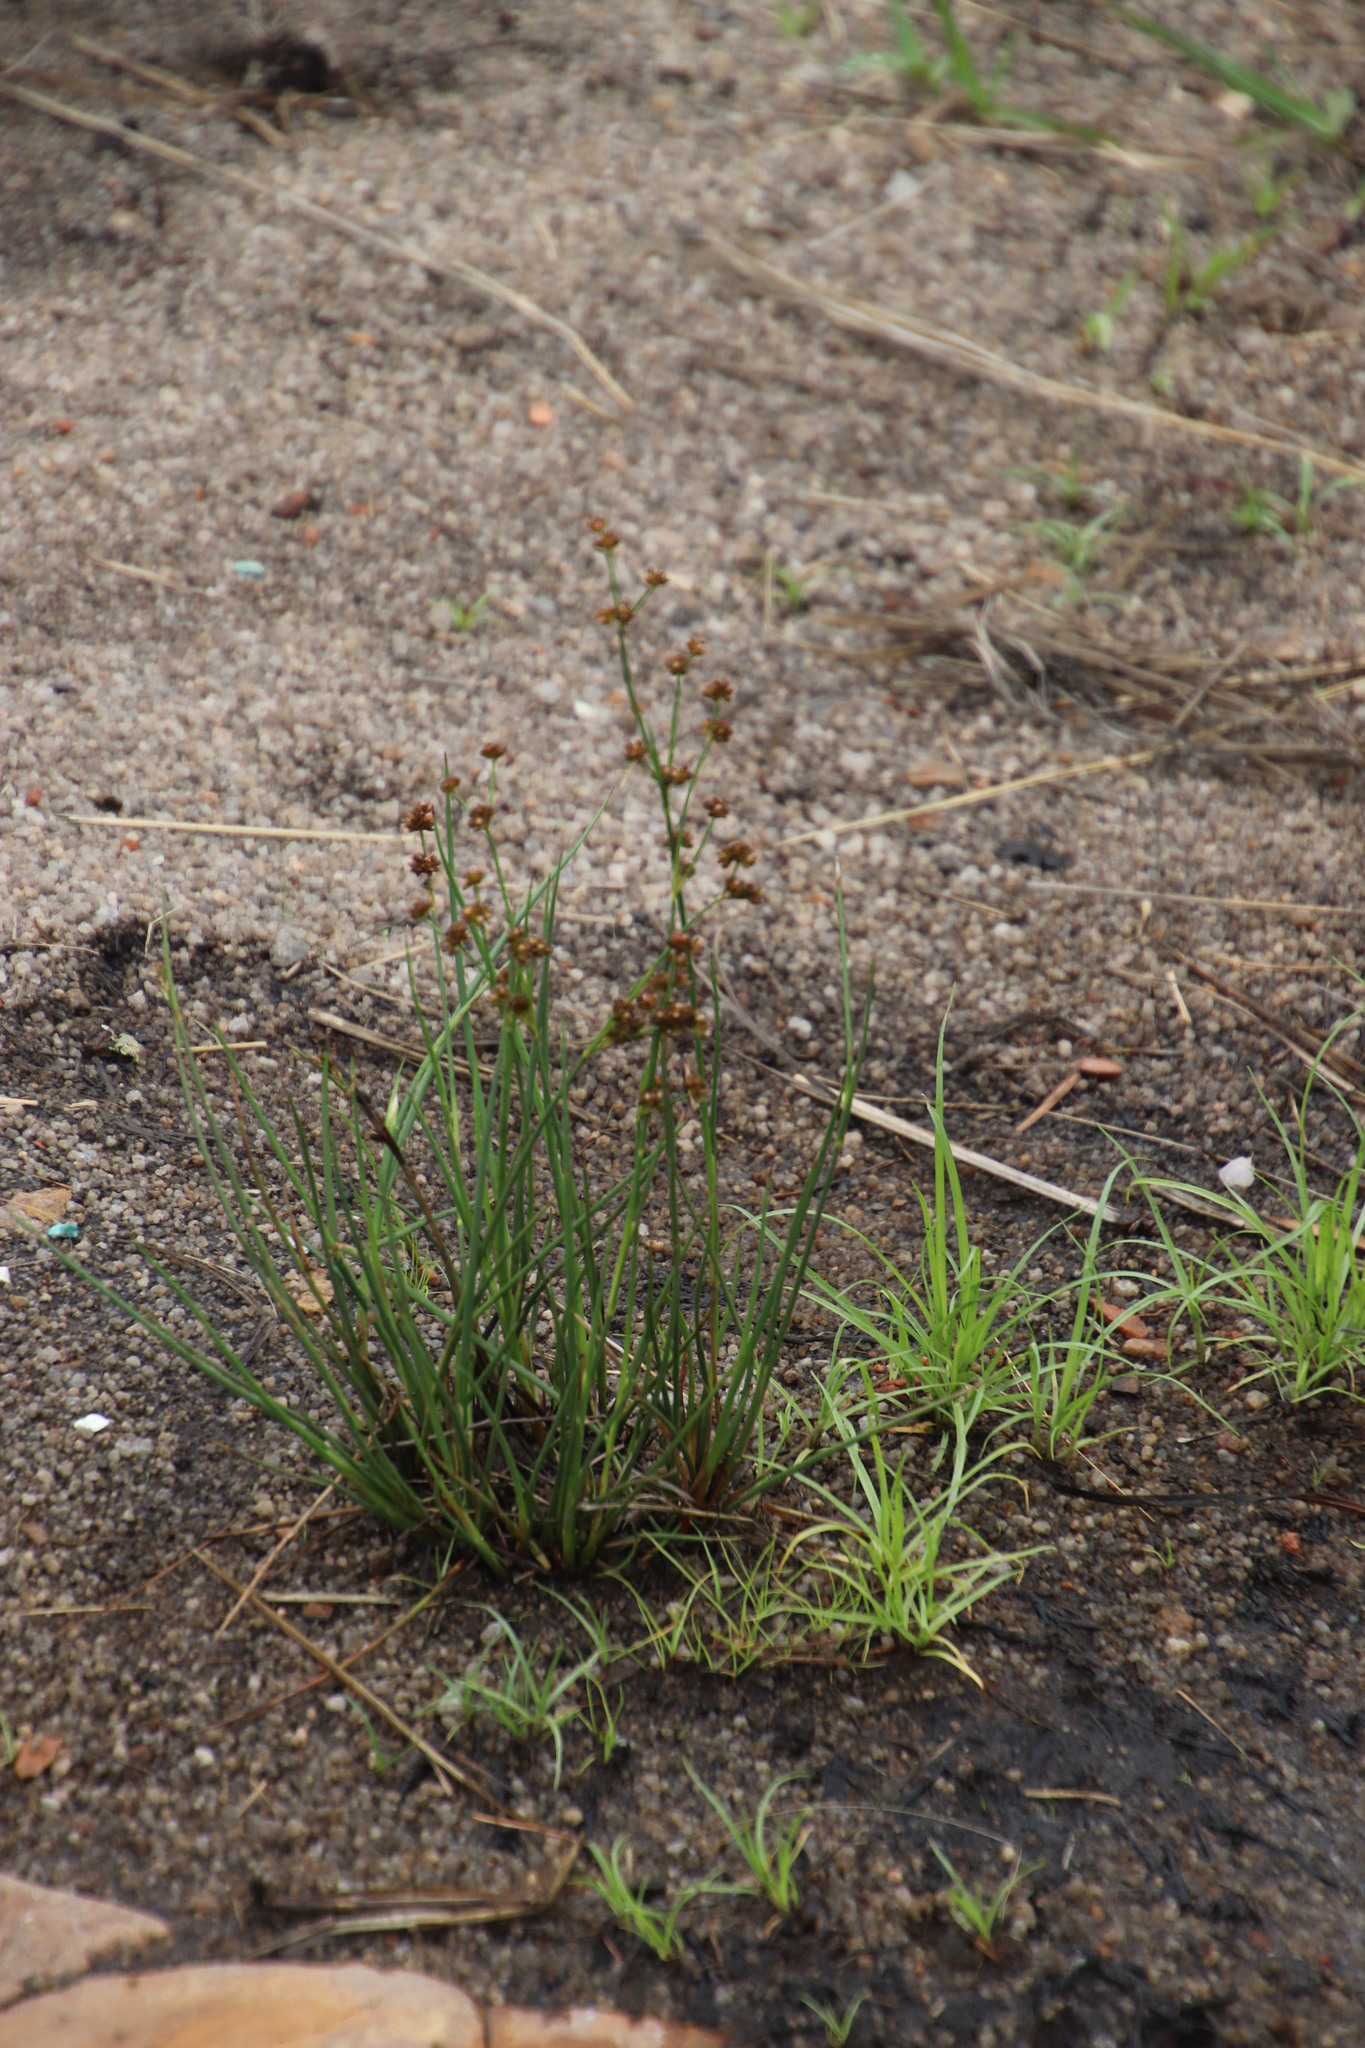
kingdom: Plantae
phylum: Tracheophyta
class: Liliopsida
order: Poales
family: Juncaceae
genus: Juncus
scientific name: Juncus oxycarpus
